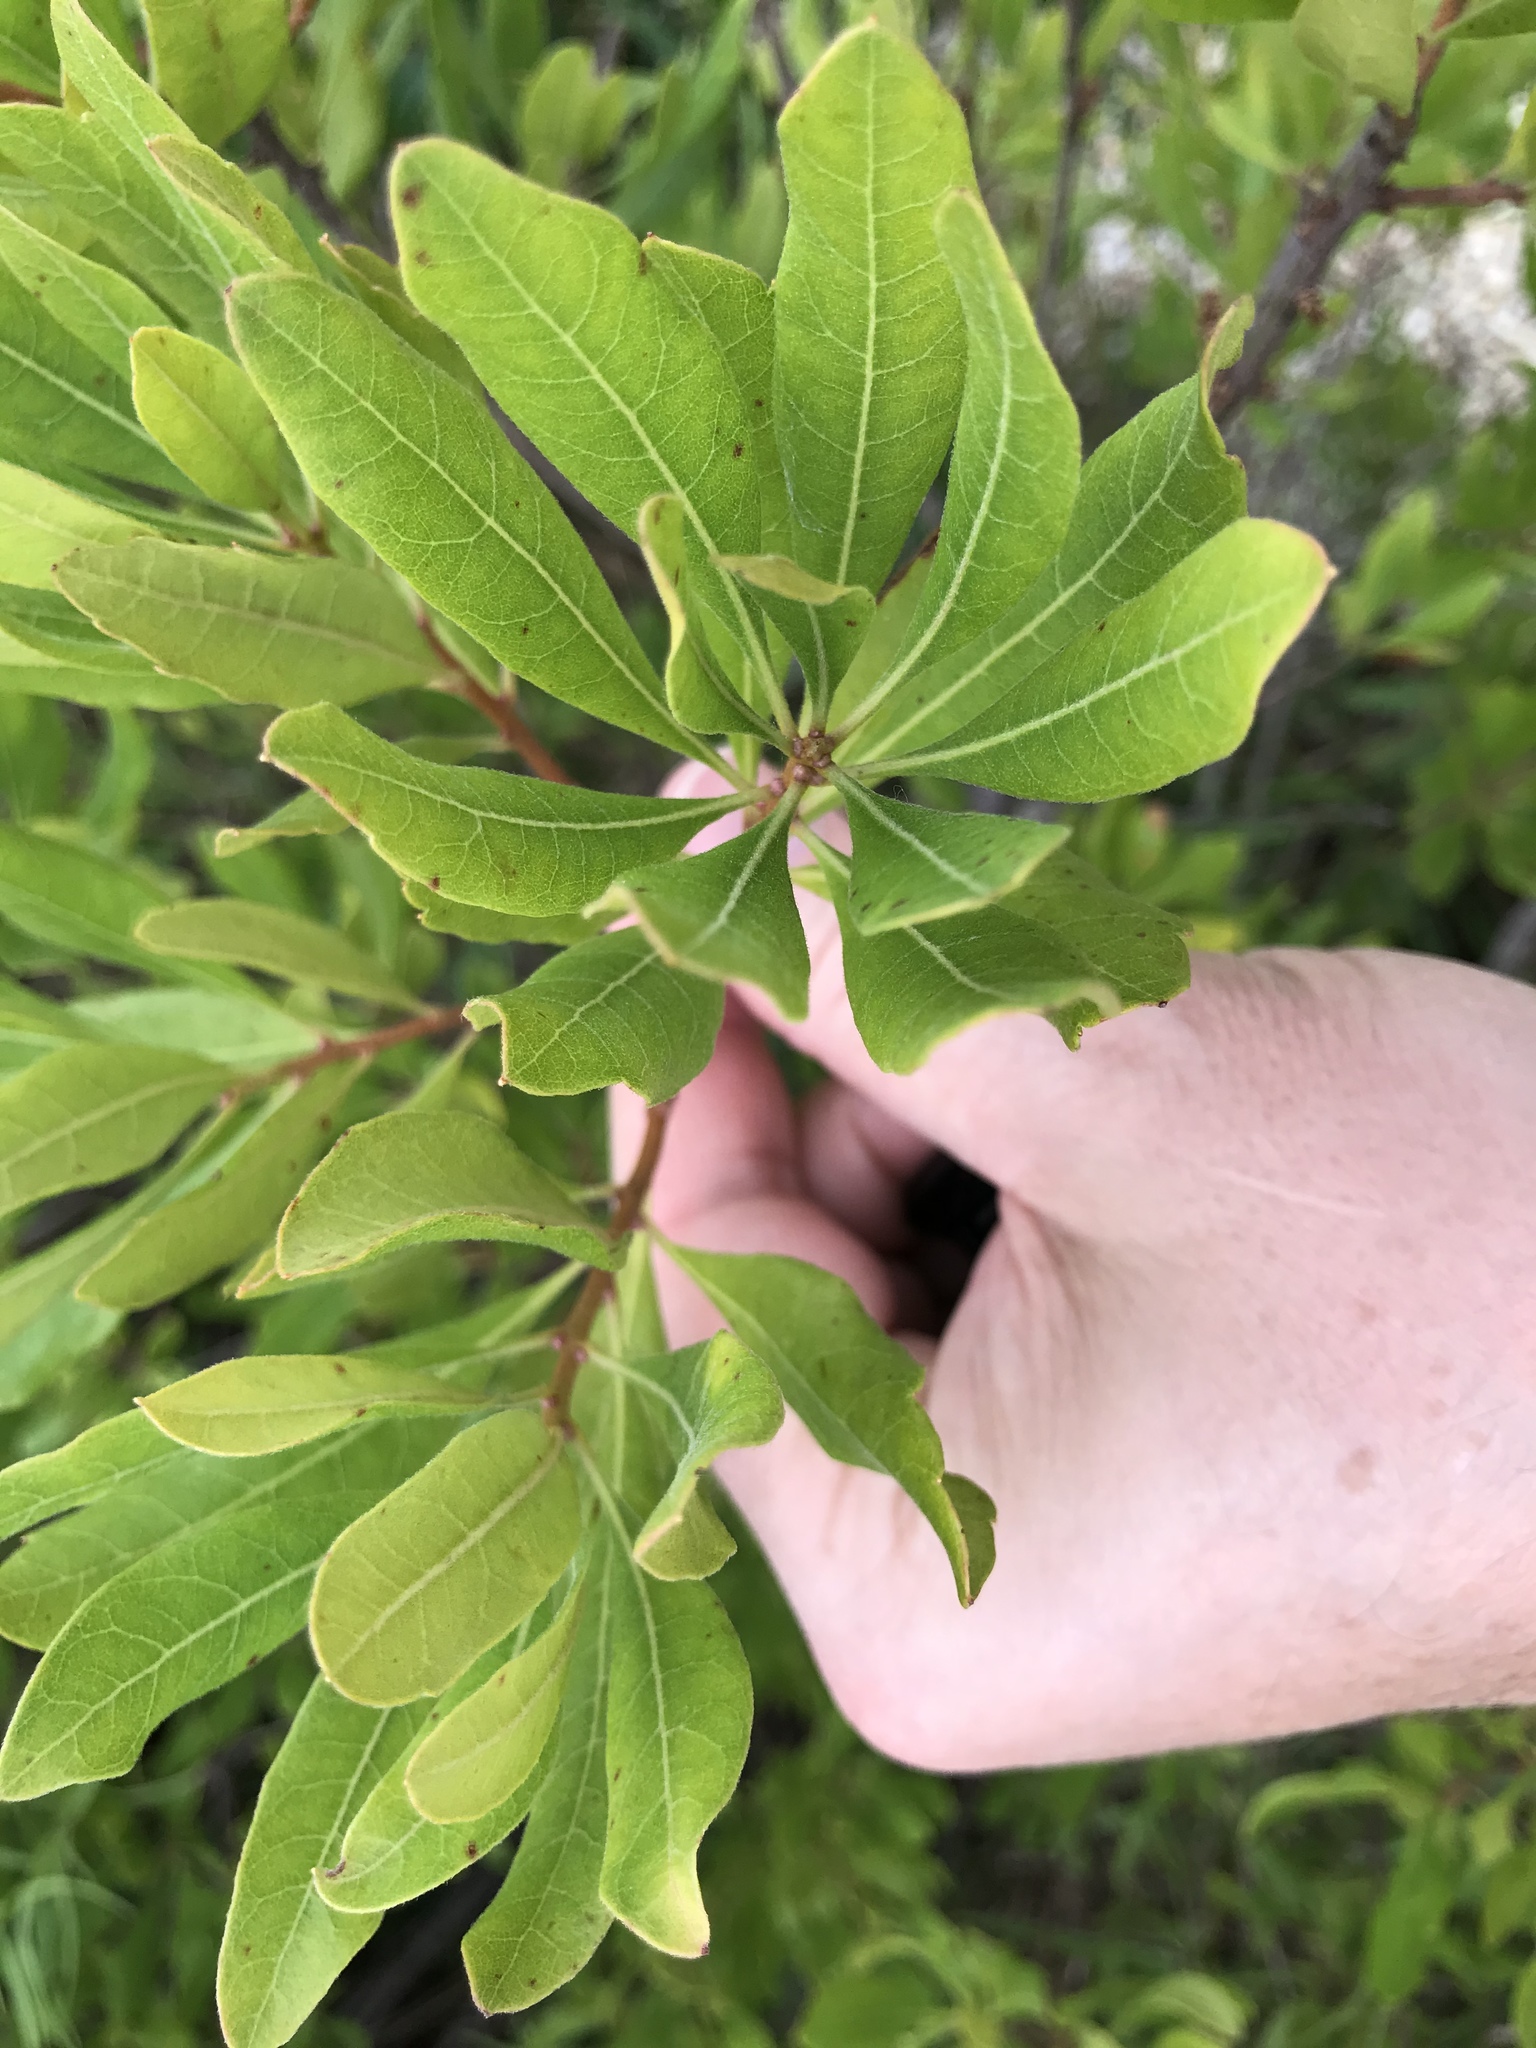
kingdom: Plantae
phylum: Tracheophyta
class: Magnoliopsida
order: Fagales
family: Myricaceae
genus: Morella
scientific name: Morella pensylvanica
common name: Northern bayberry
